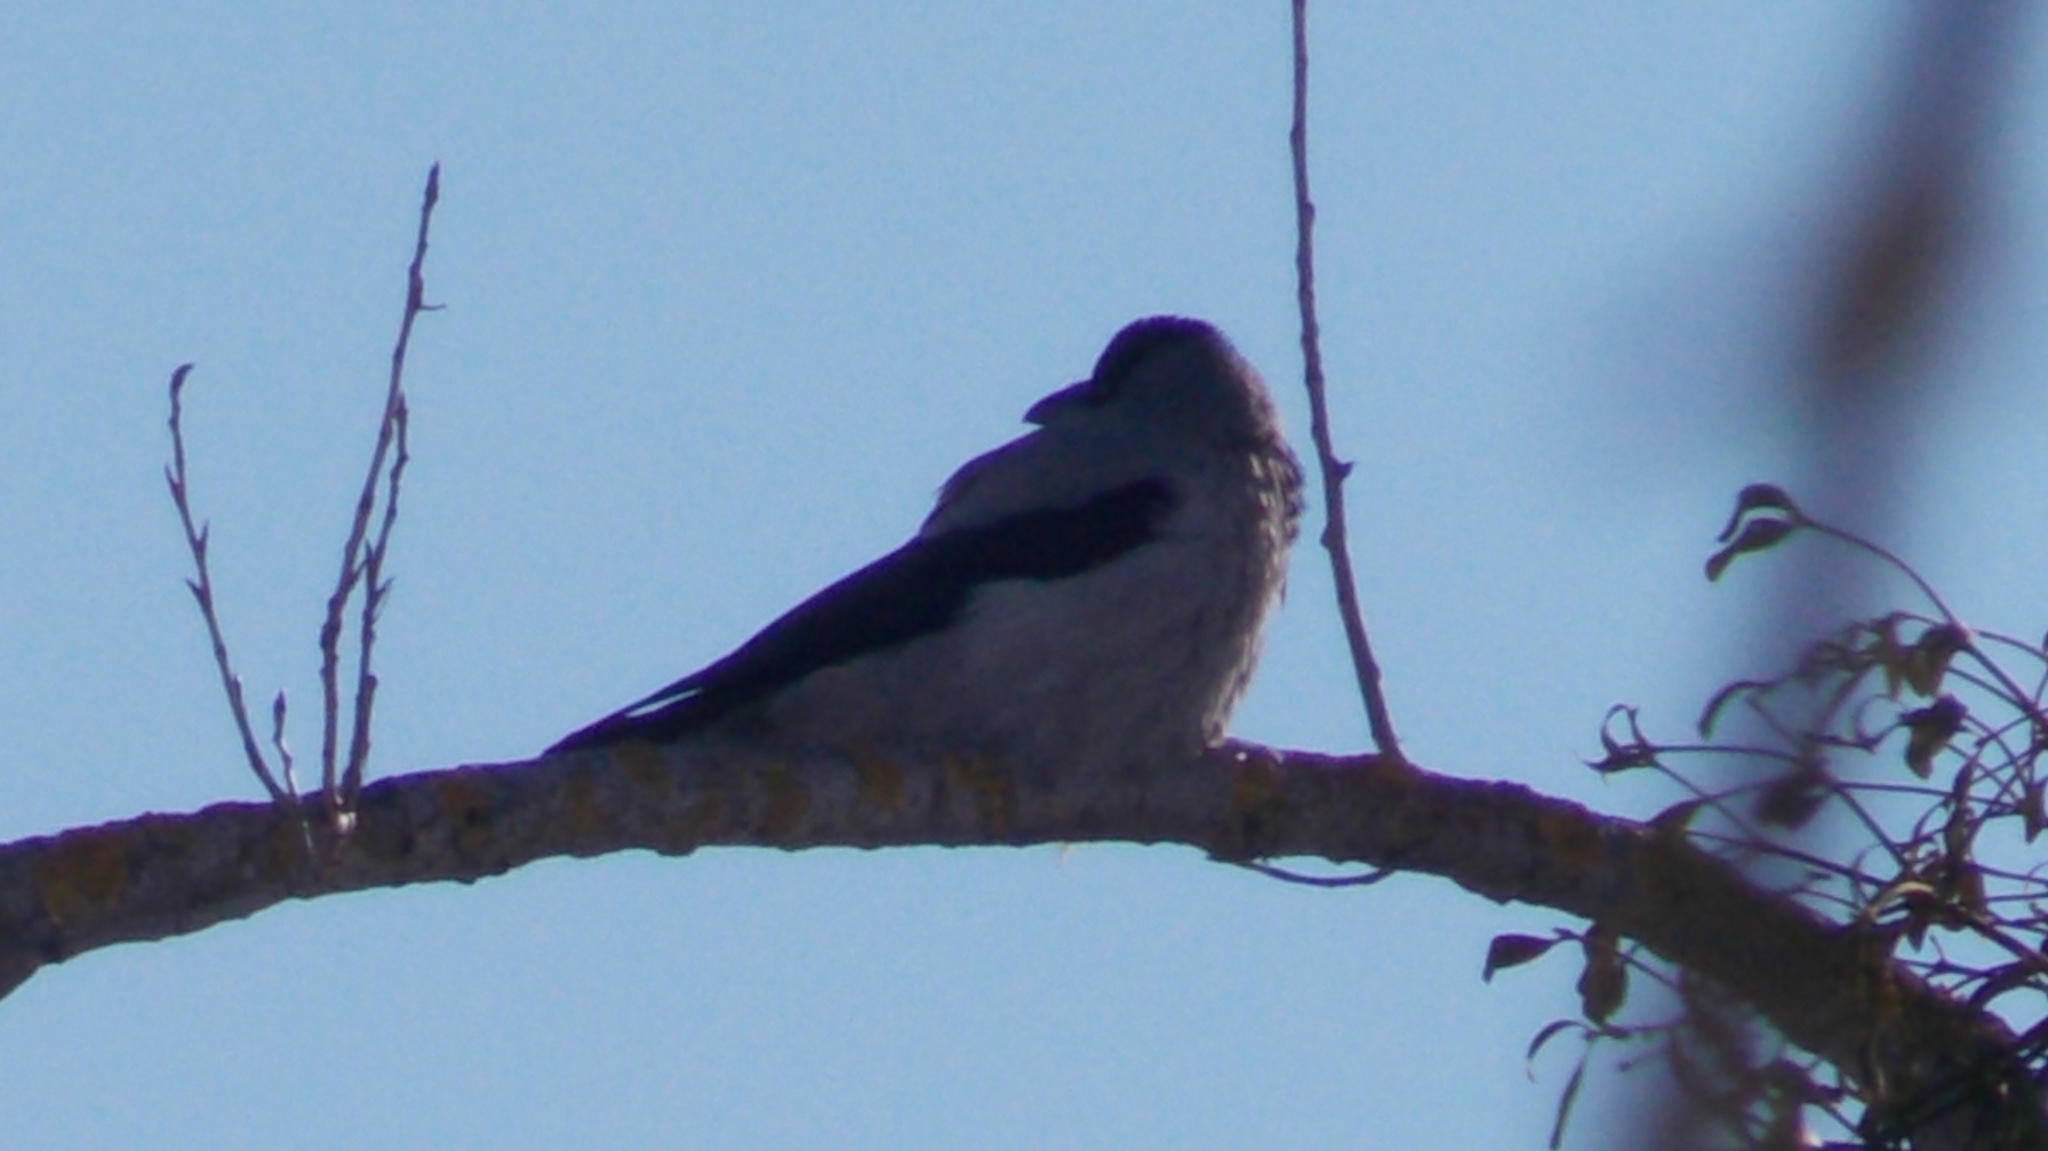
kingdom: Animalia
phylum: Chordata
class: Aves
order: Passeriformes
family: Corvidae
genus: Corvus
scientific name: Corvus cornix
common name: Hooded crow
